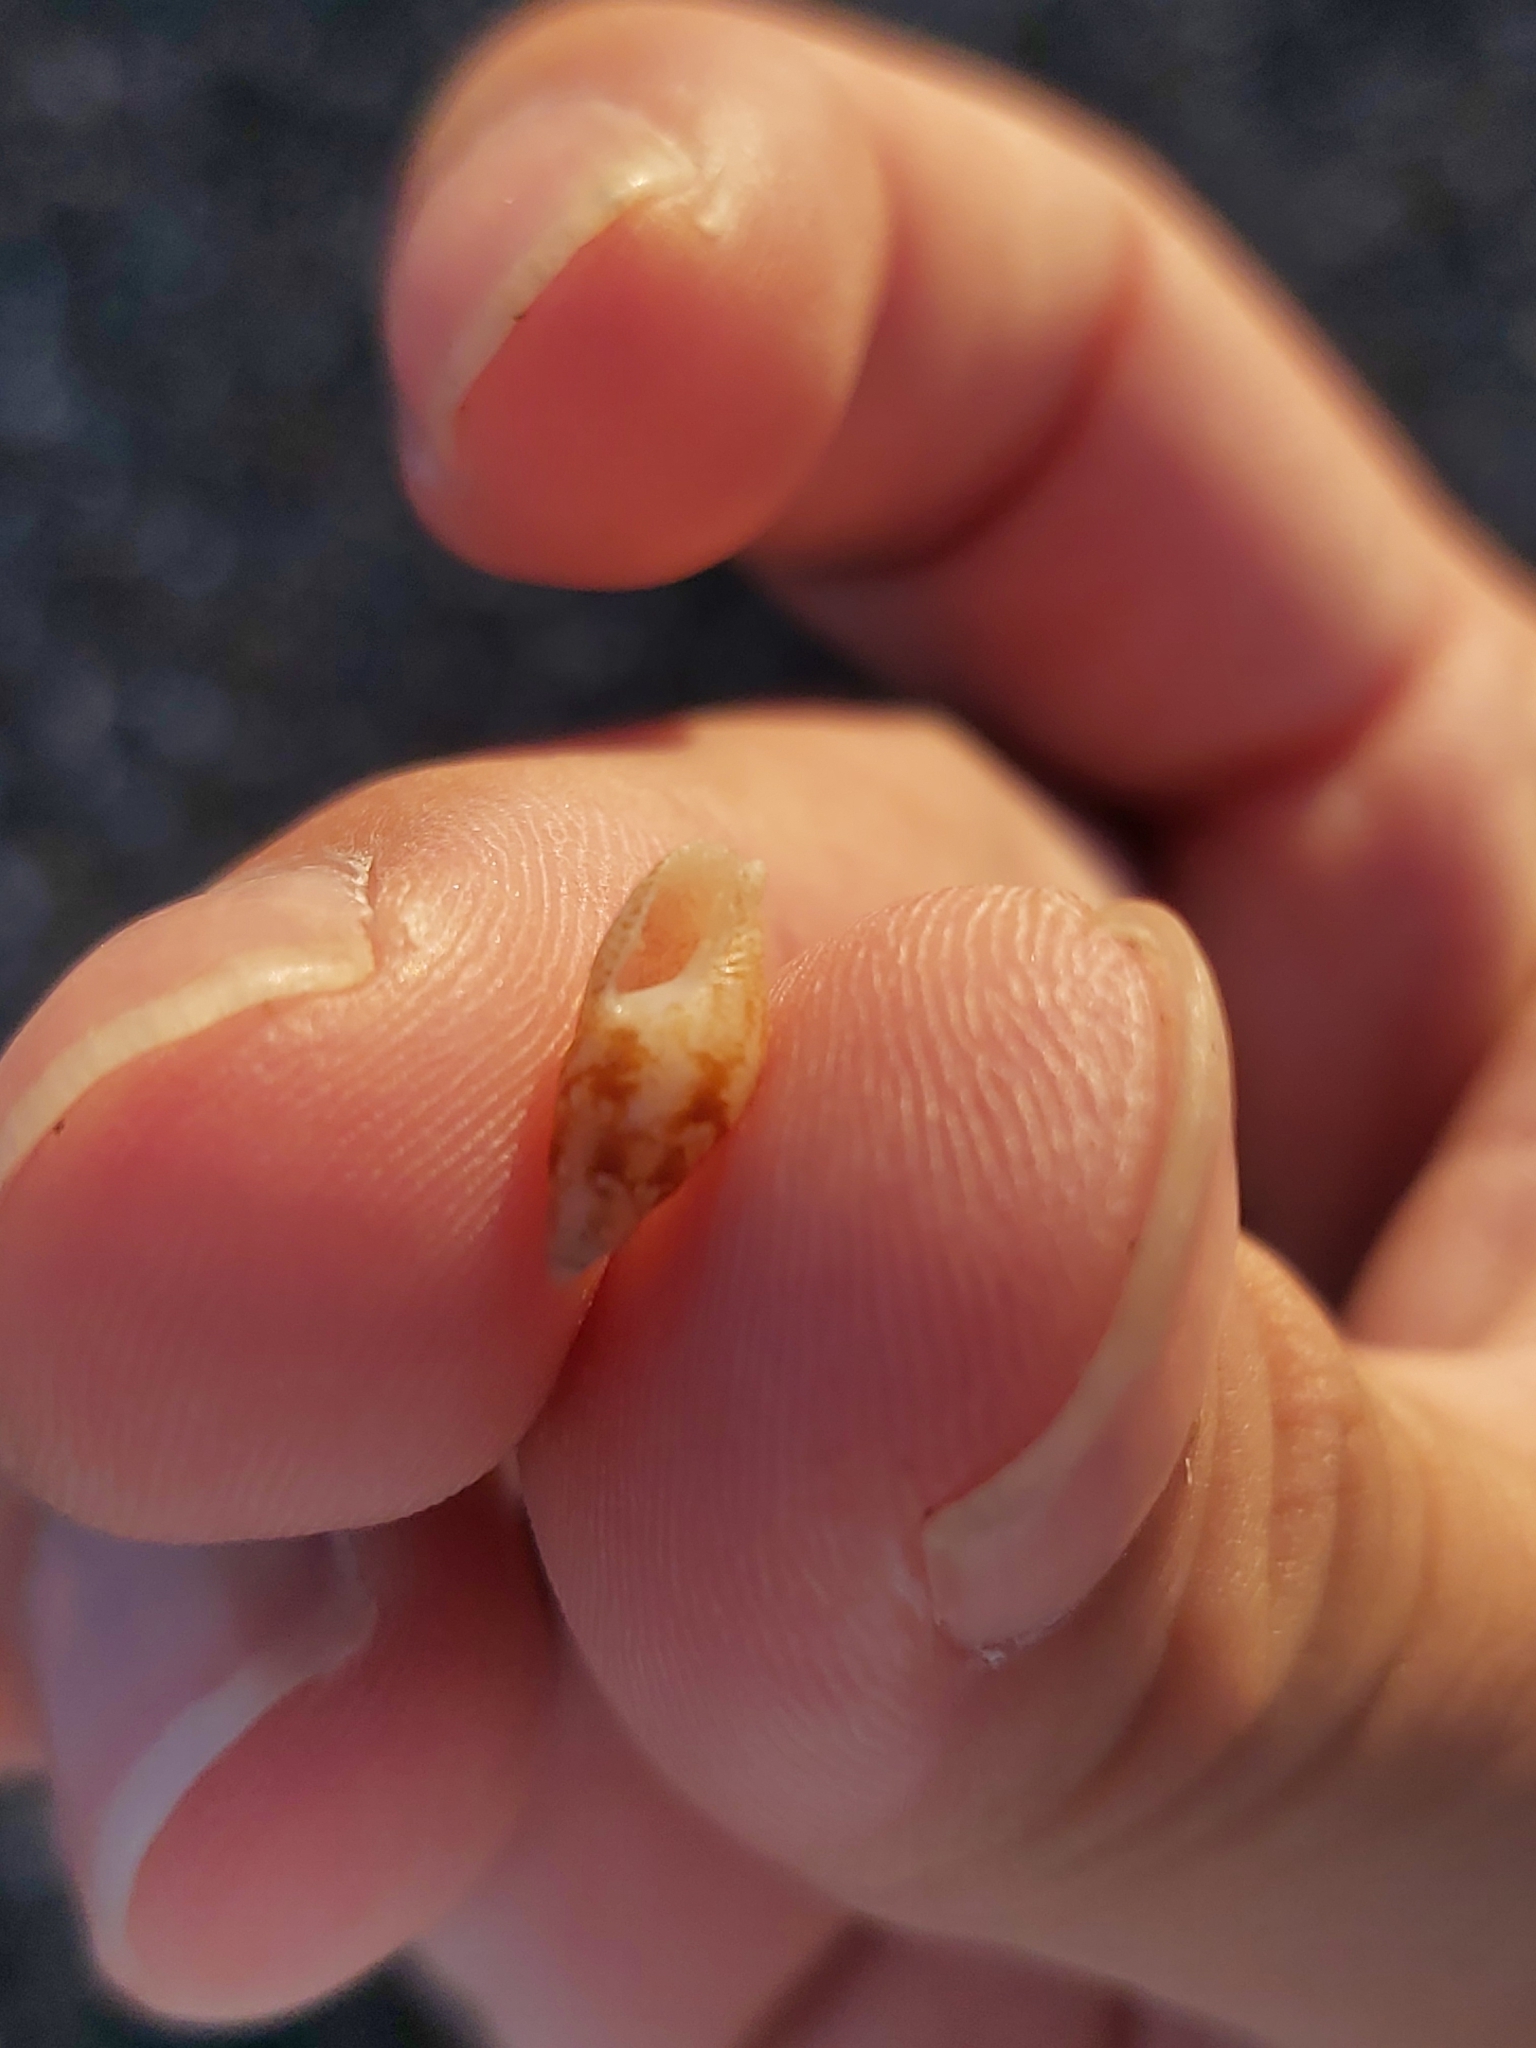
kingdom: Animalia
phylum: Mollusca
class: Gastropoda
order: Neogastropoda
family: Columbellidae
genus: Mitrella
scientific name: Mitrella tayloriana
